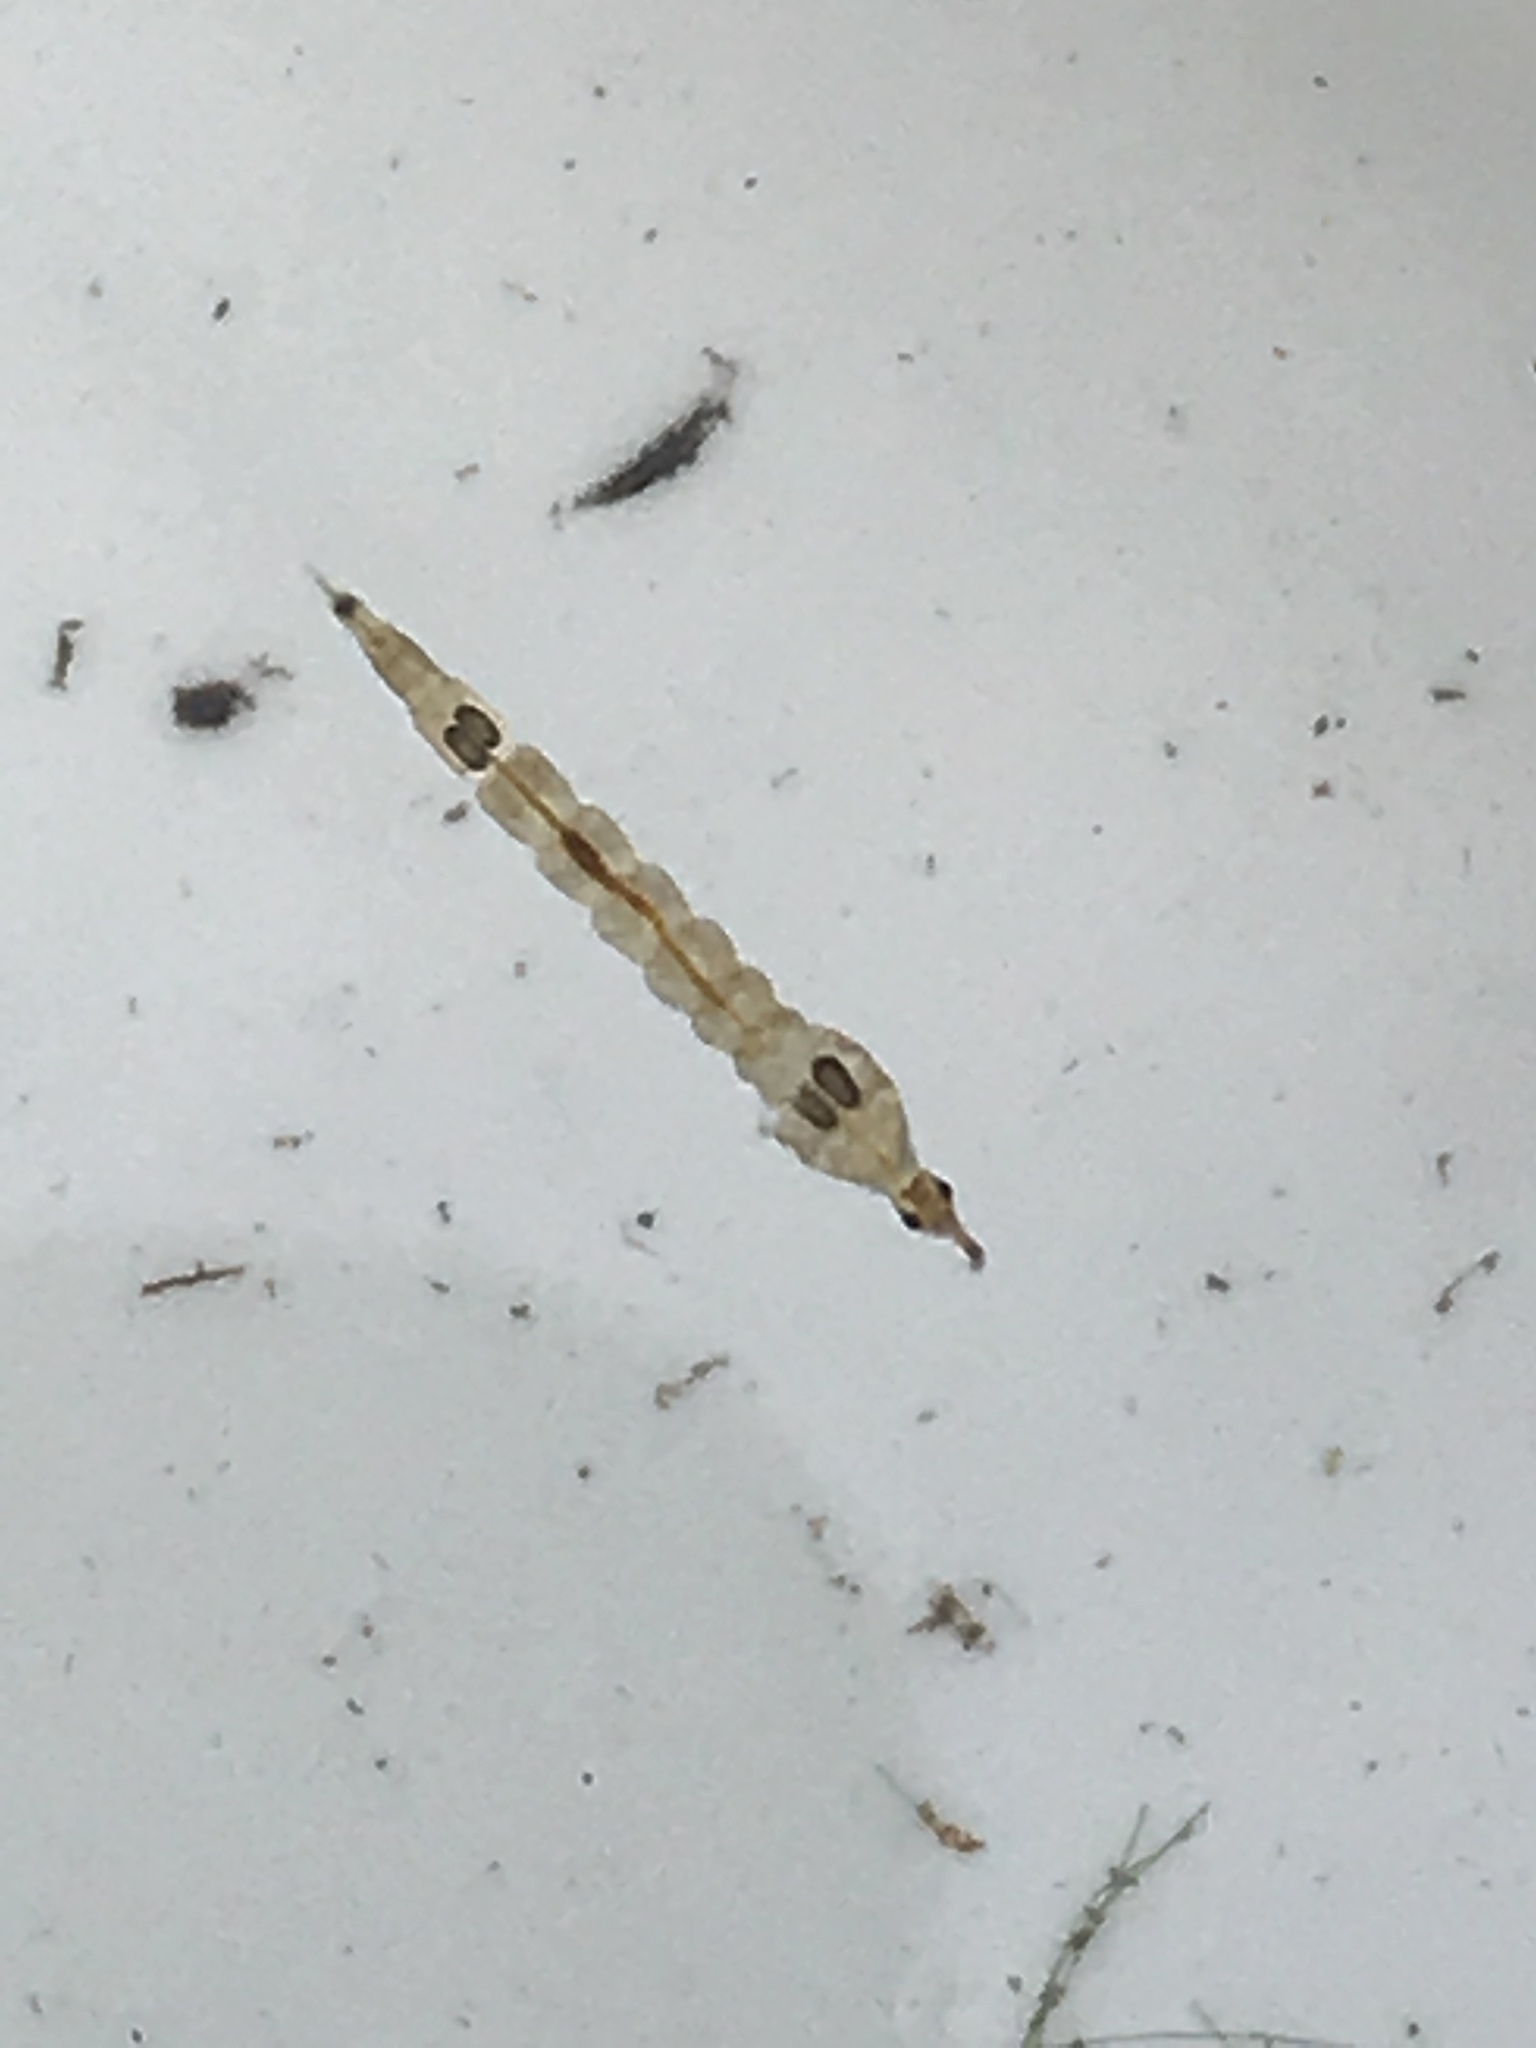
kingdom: Animalia
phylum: Arthropoda
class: Insecta
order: Diptera
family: Chaoboridae
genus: Chaoborus
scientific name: Chaoborus
